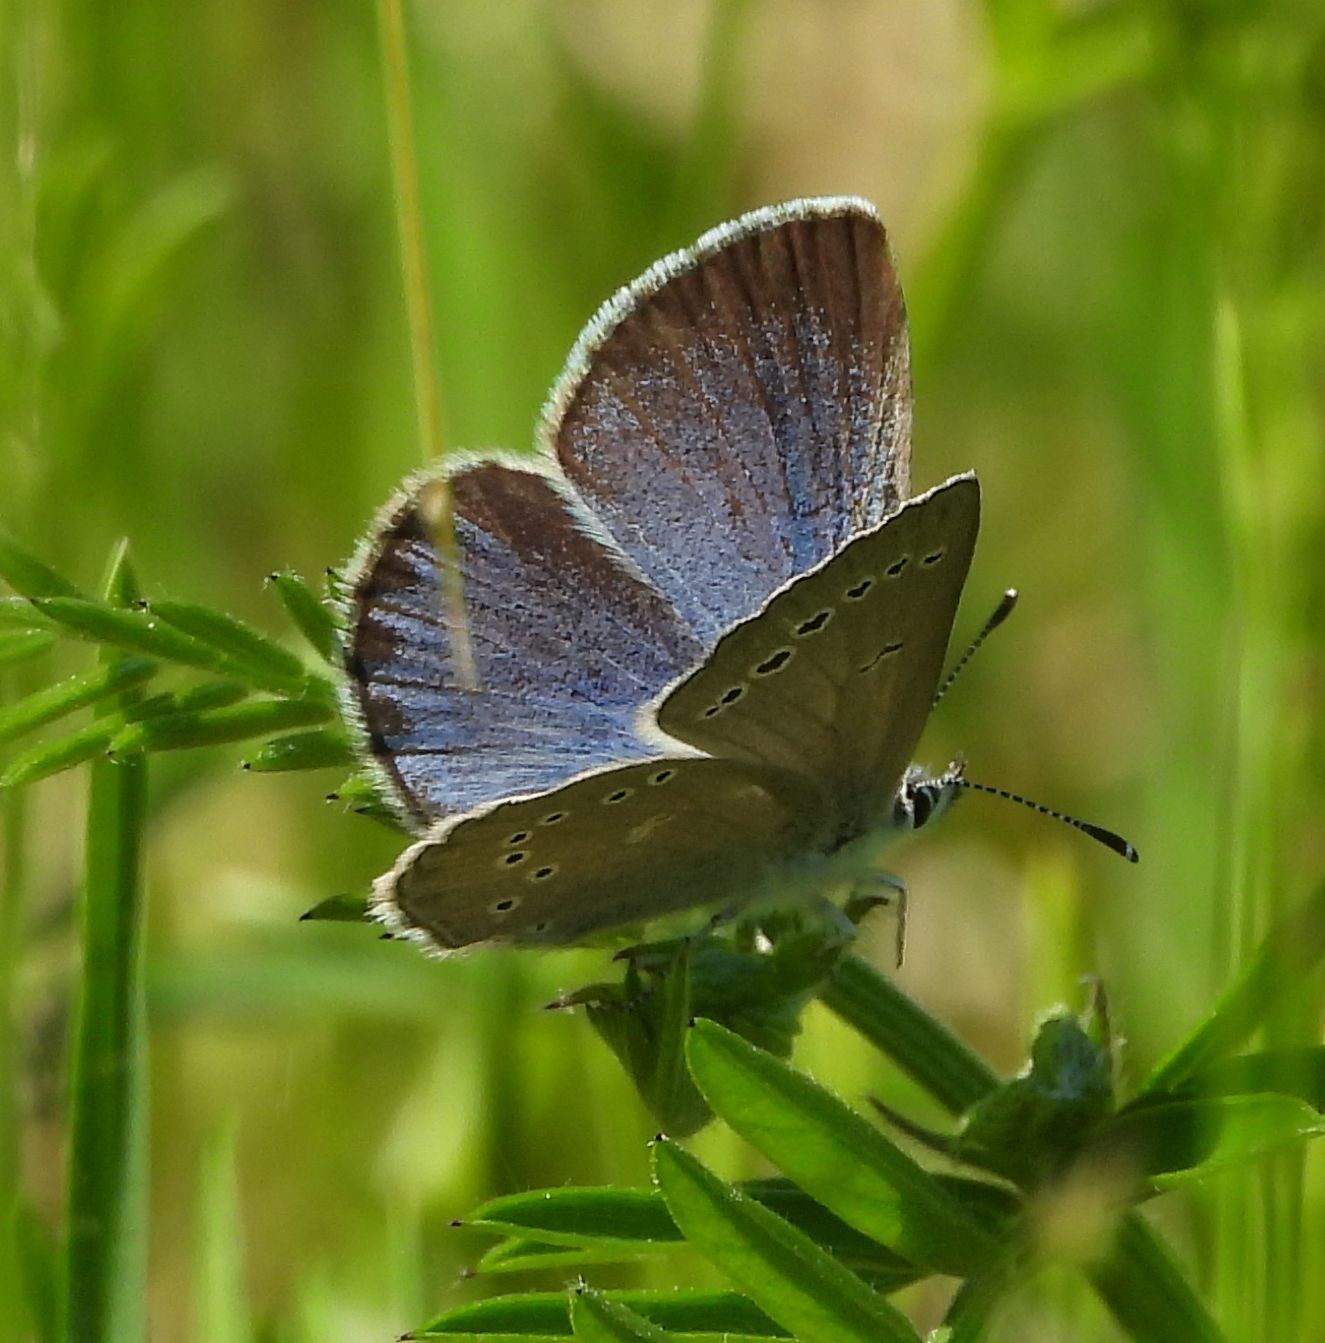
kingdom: Animalia
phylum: Arthropoda
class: Insecta
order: Lepidoptera
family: Lycaenidae
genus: Glaucopsyche
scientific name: Glaucopsyche lygdamus
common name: Silvery blue
